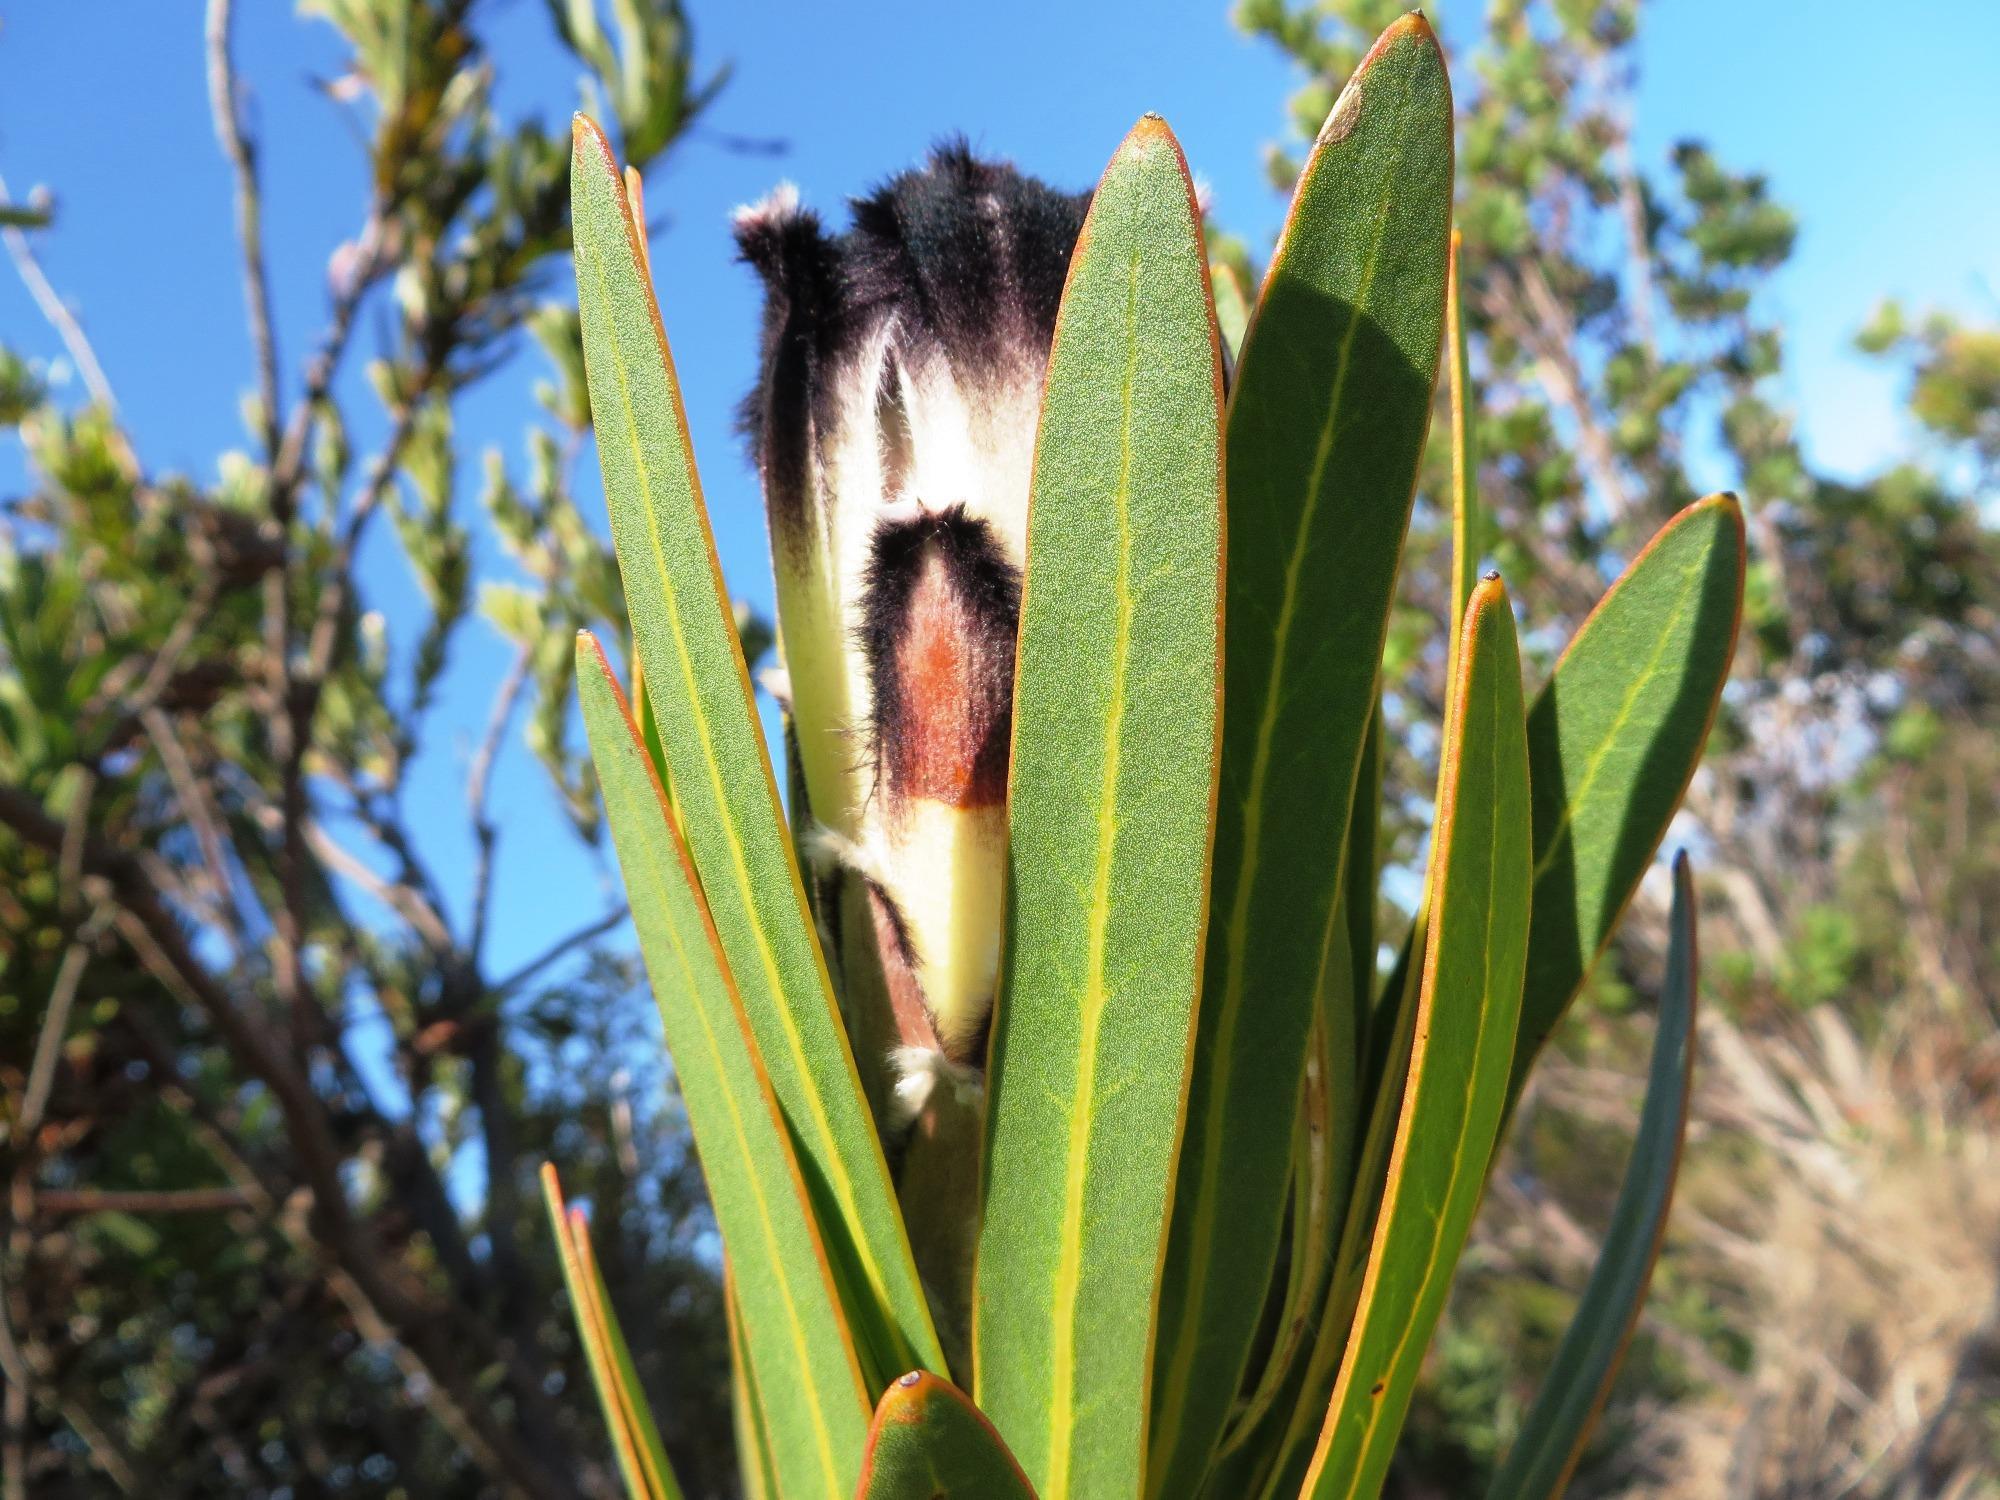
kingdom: Plantae
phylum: Tracheophyta
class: Magnoliopsida
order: Proteales
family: Proteaceae
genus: Protea
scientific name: Protea lepidocarpodendron
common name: Black-bearded protea
